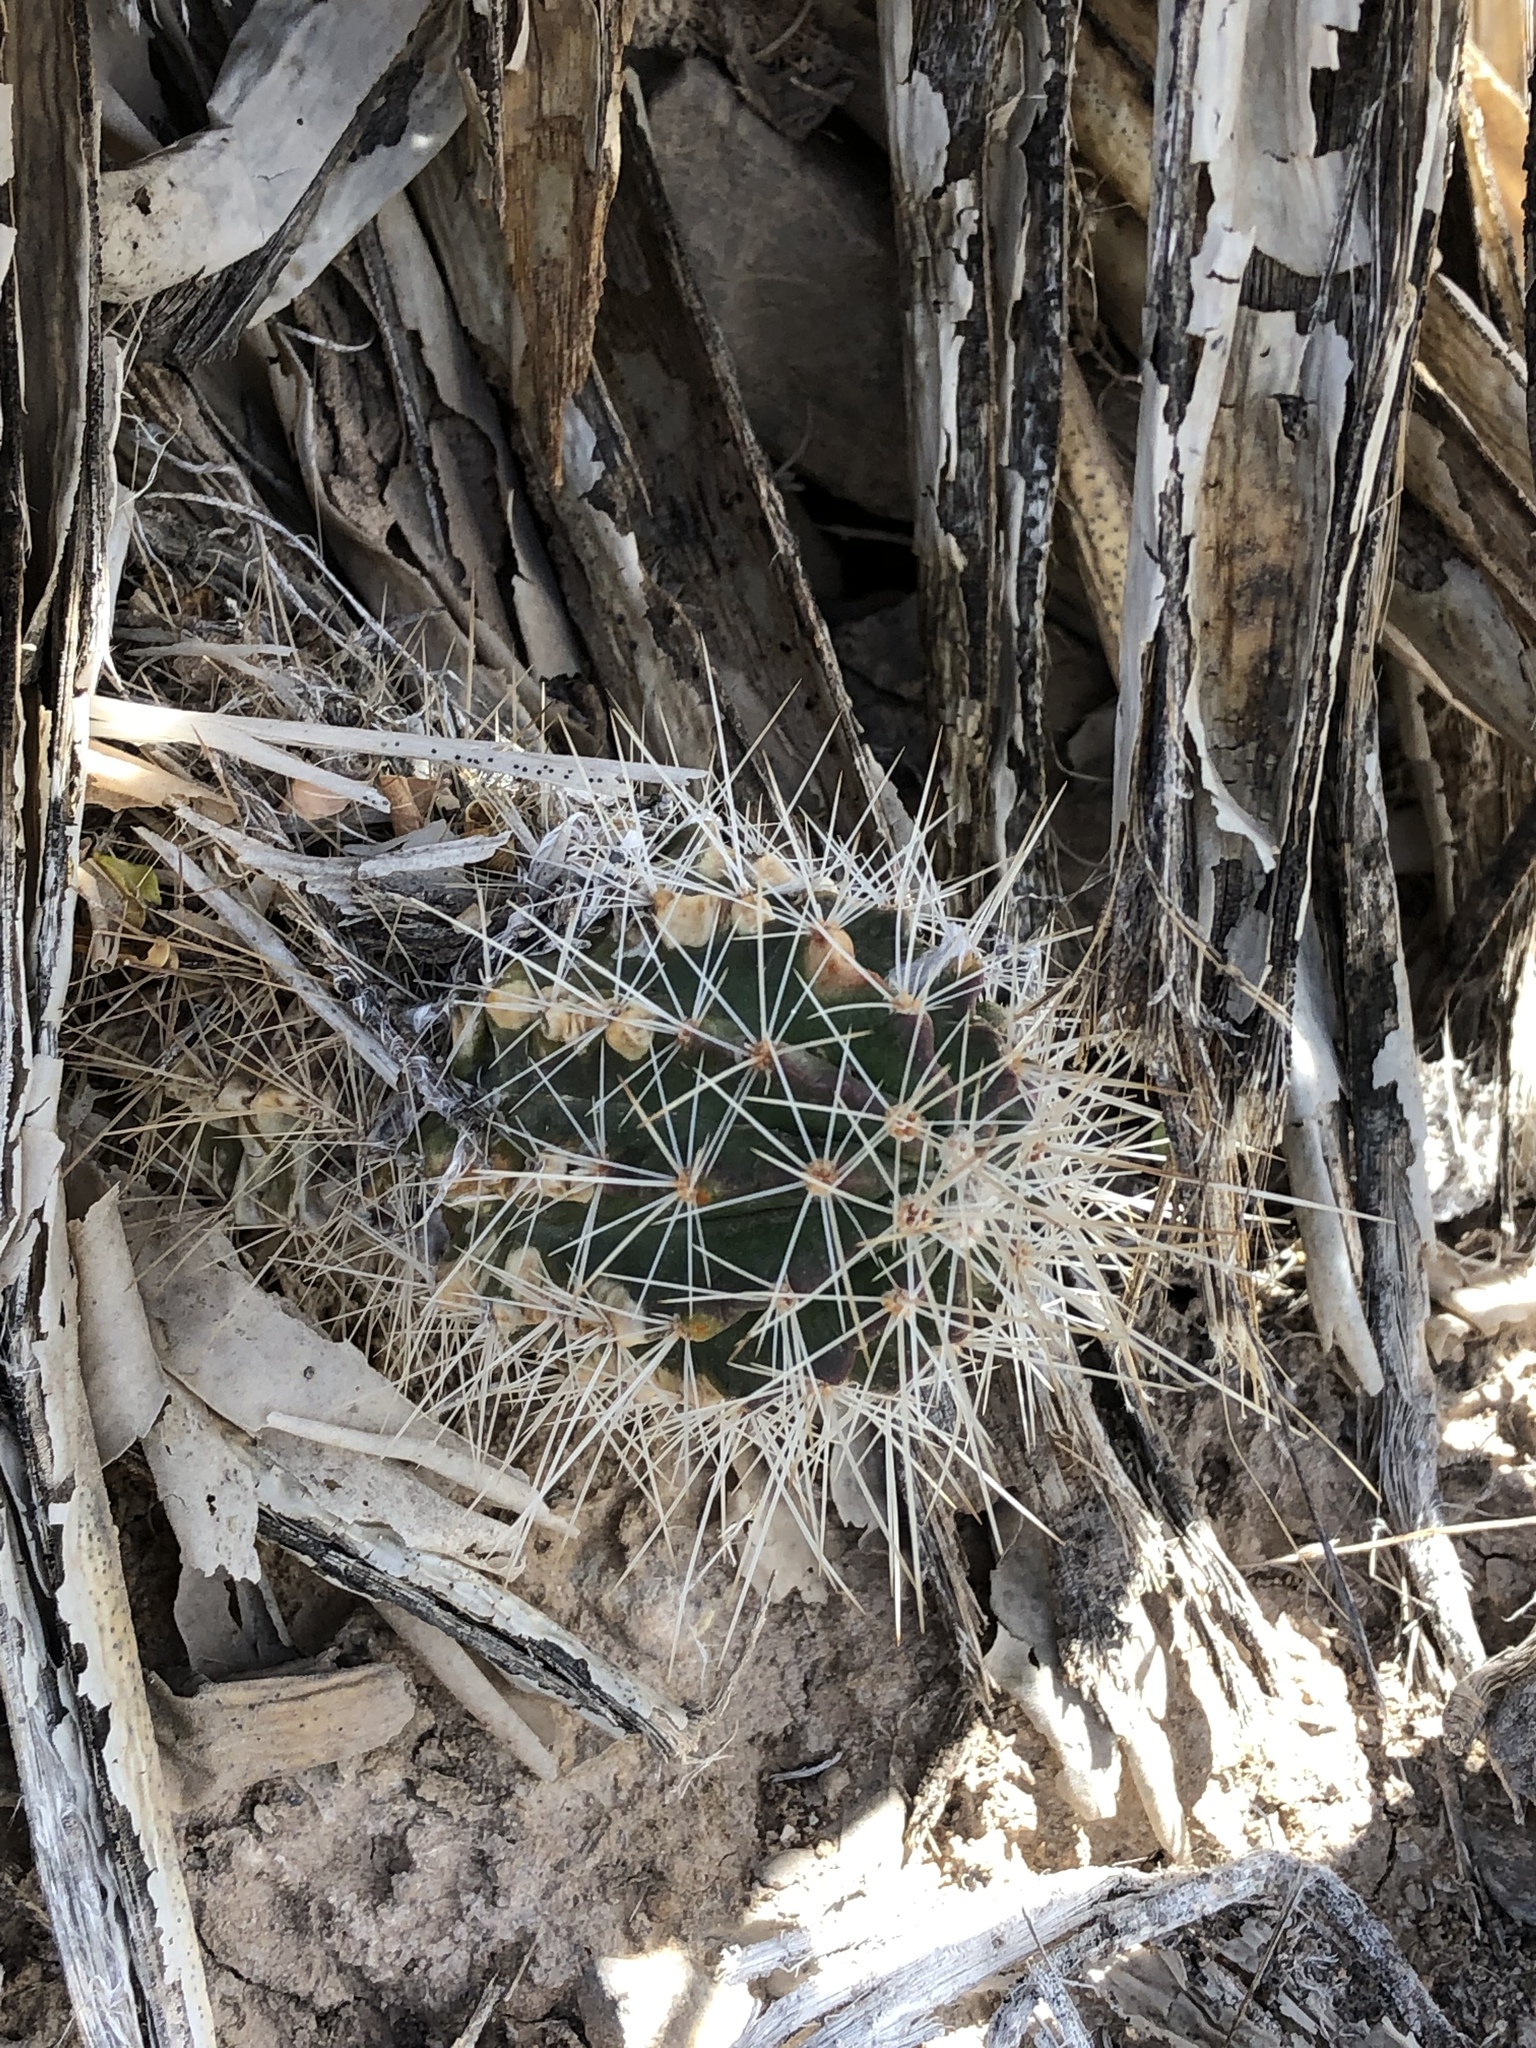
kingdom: Plantae
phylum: Tracheophyta
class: Magnoliopsida
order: Caryophyllales
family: Cactaceae
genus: Echinocereus
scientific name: Echinocereus stramineus
